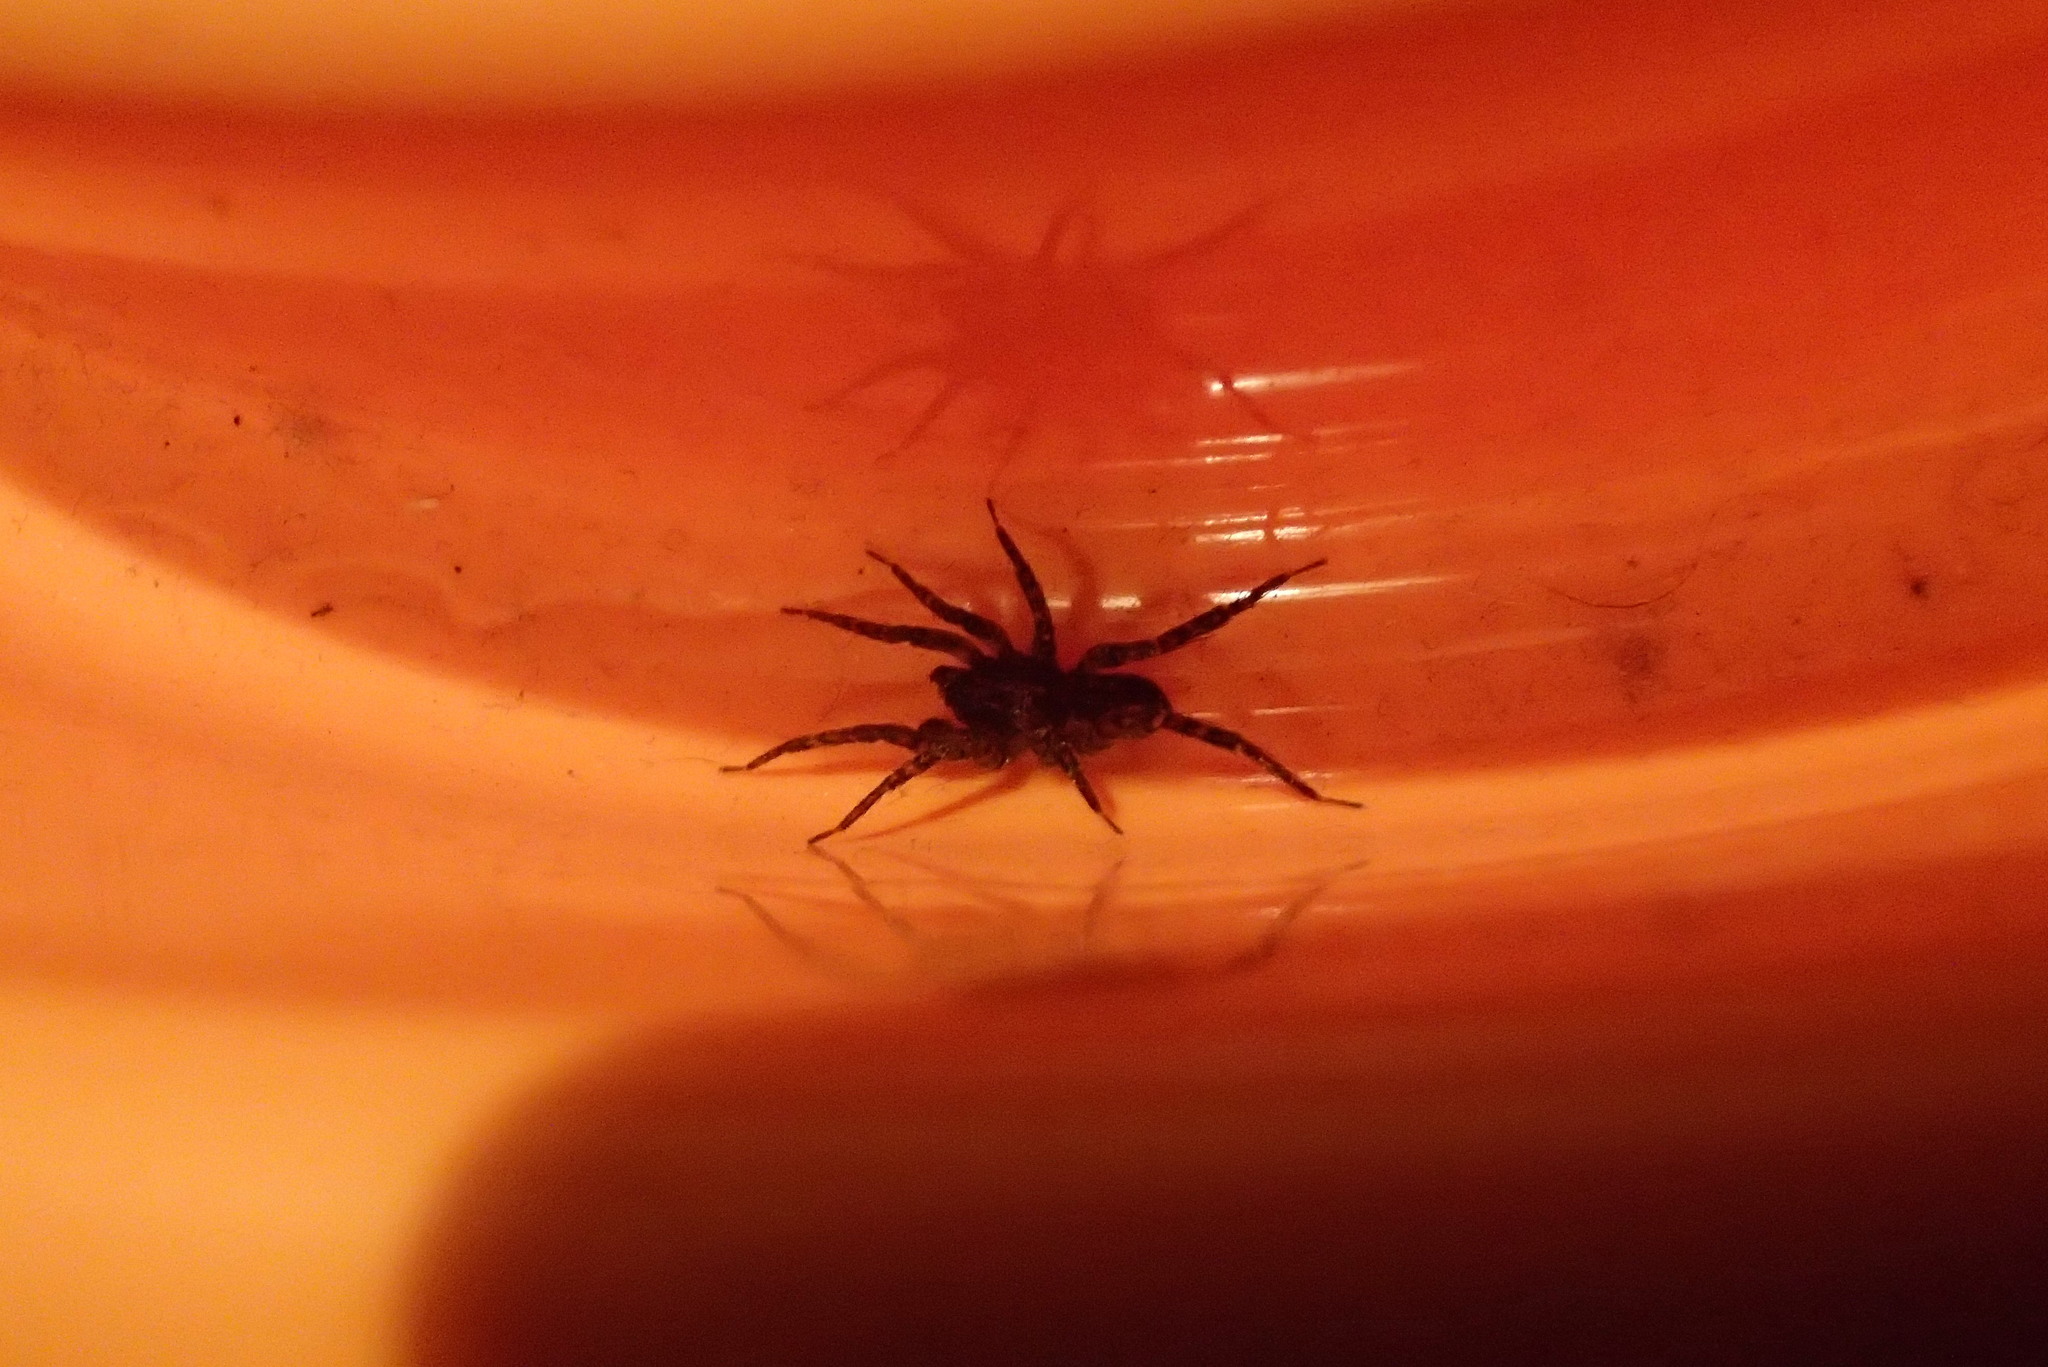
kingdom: Animalia
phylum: Arthropoda
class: Arachnida
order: Araneae
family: Amaurobiidae
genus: Storenosoma
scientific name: Storenosoma terraneum
